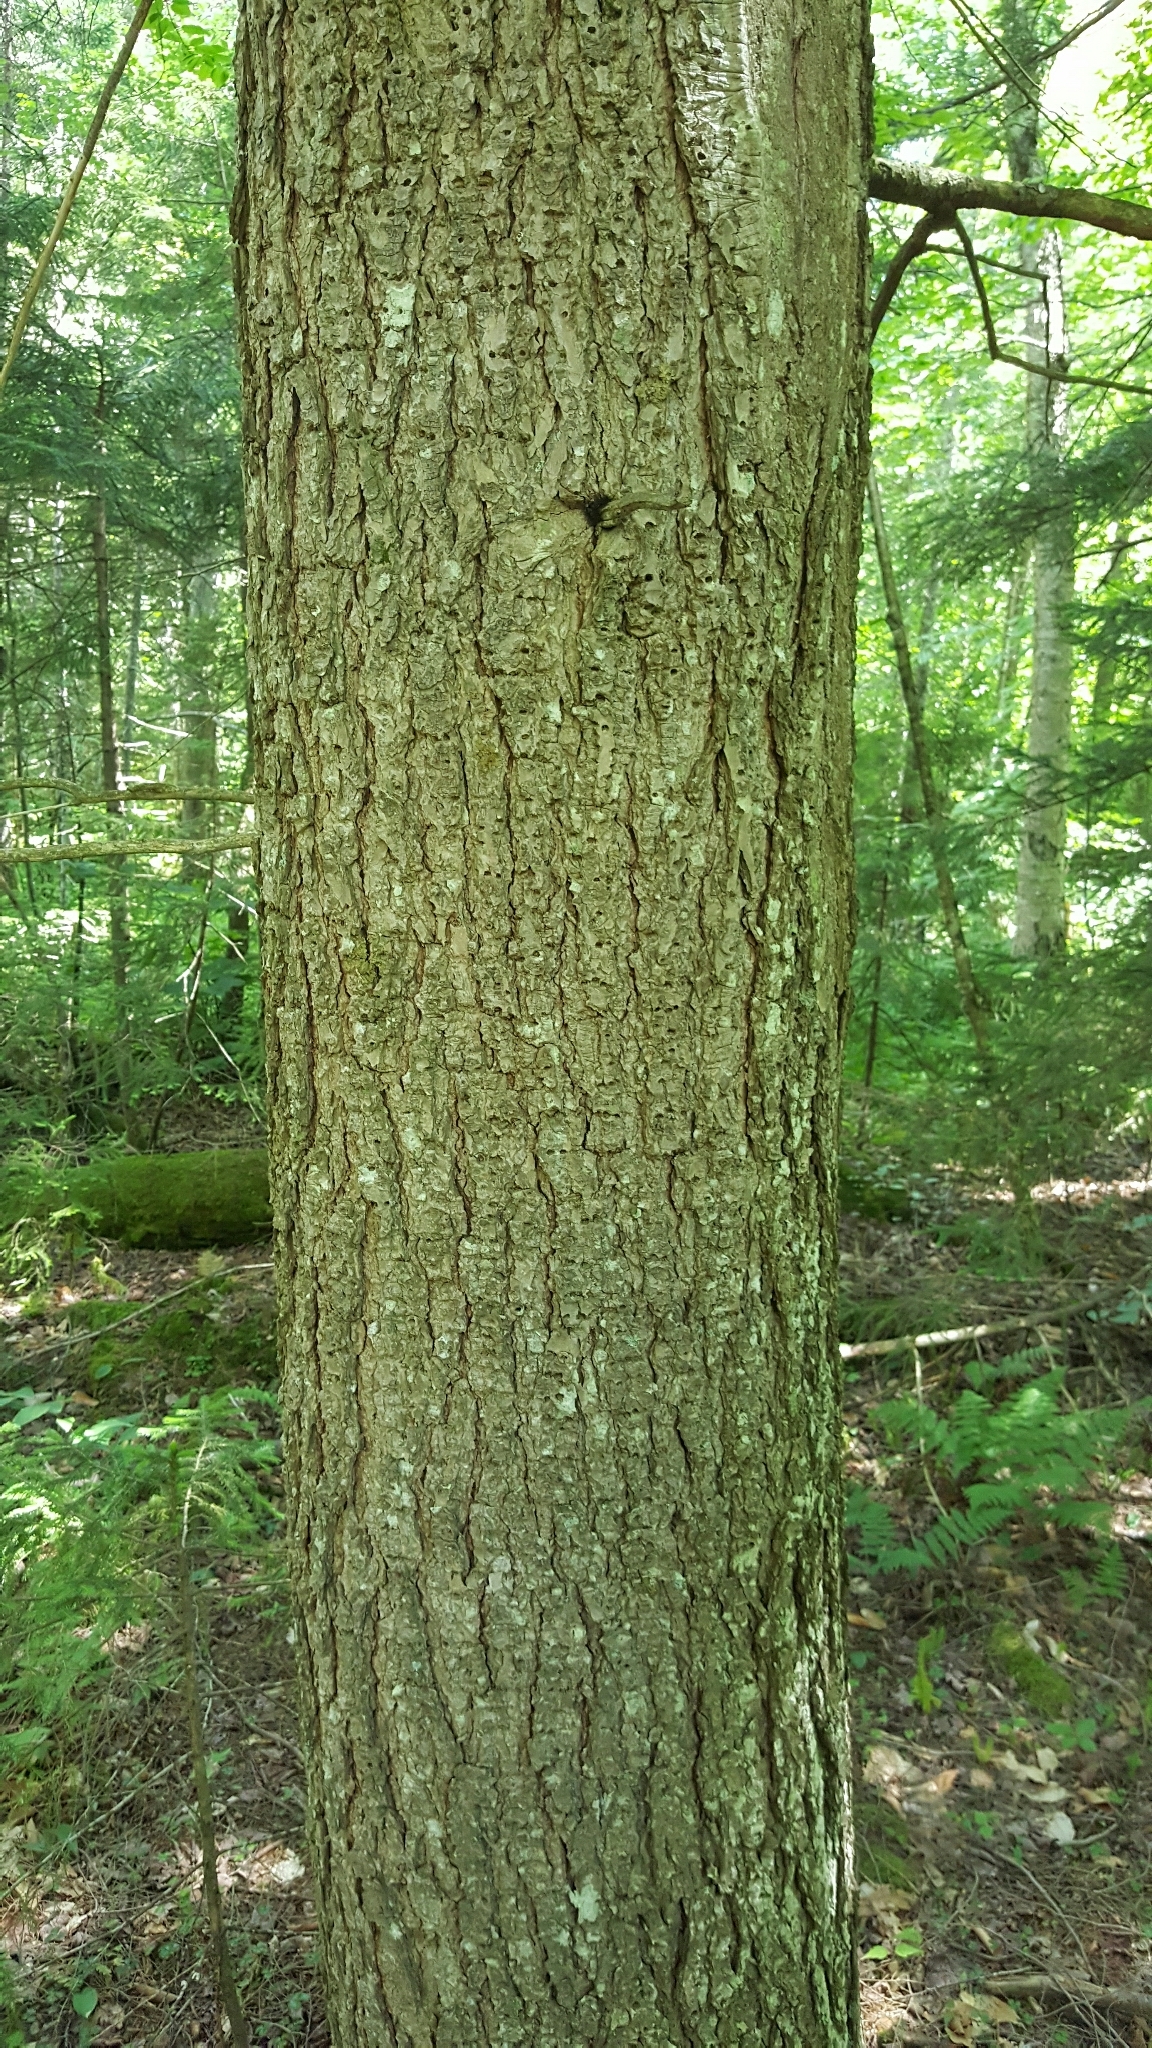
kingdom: Plantae
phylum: Tracheophyta
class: Pinopsida
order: Pinales
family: Pinaceae
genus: Tsuga
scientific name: Tsuga canadensis
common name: Eastern hemlock
